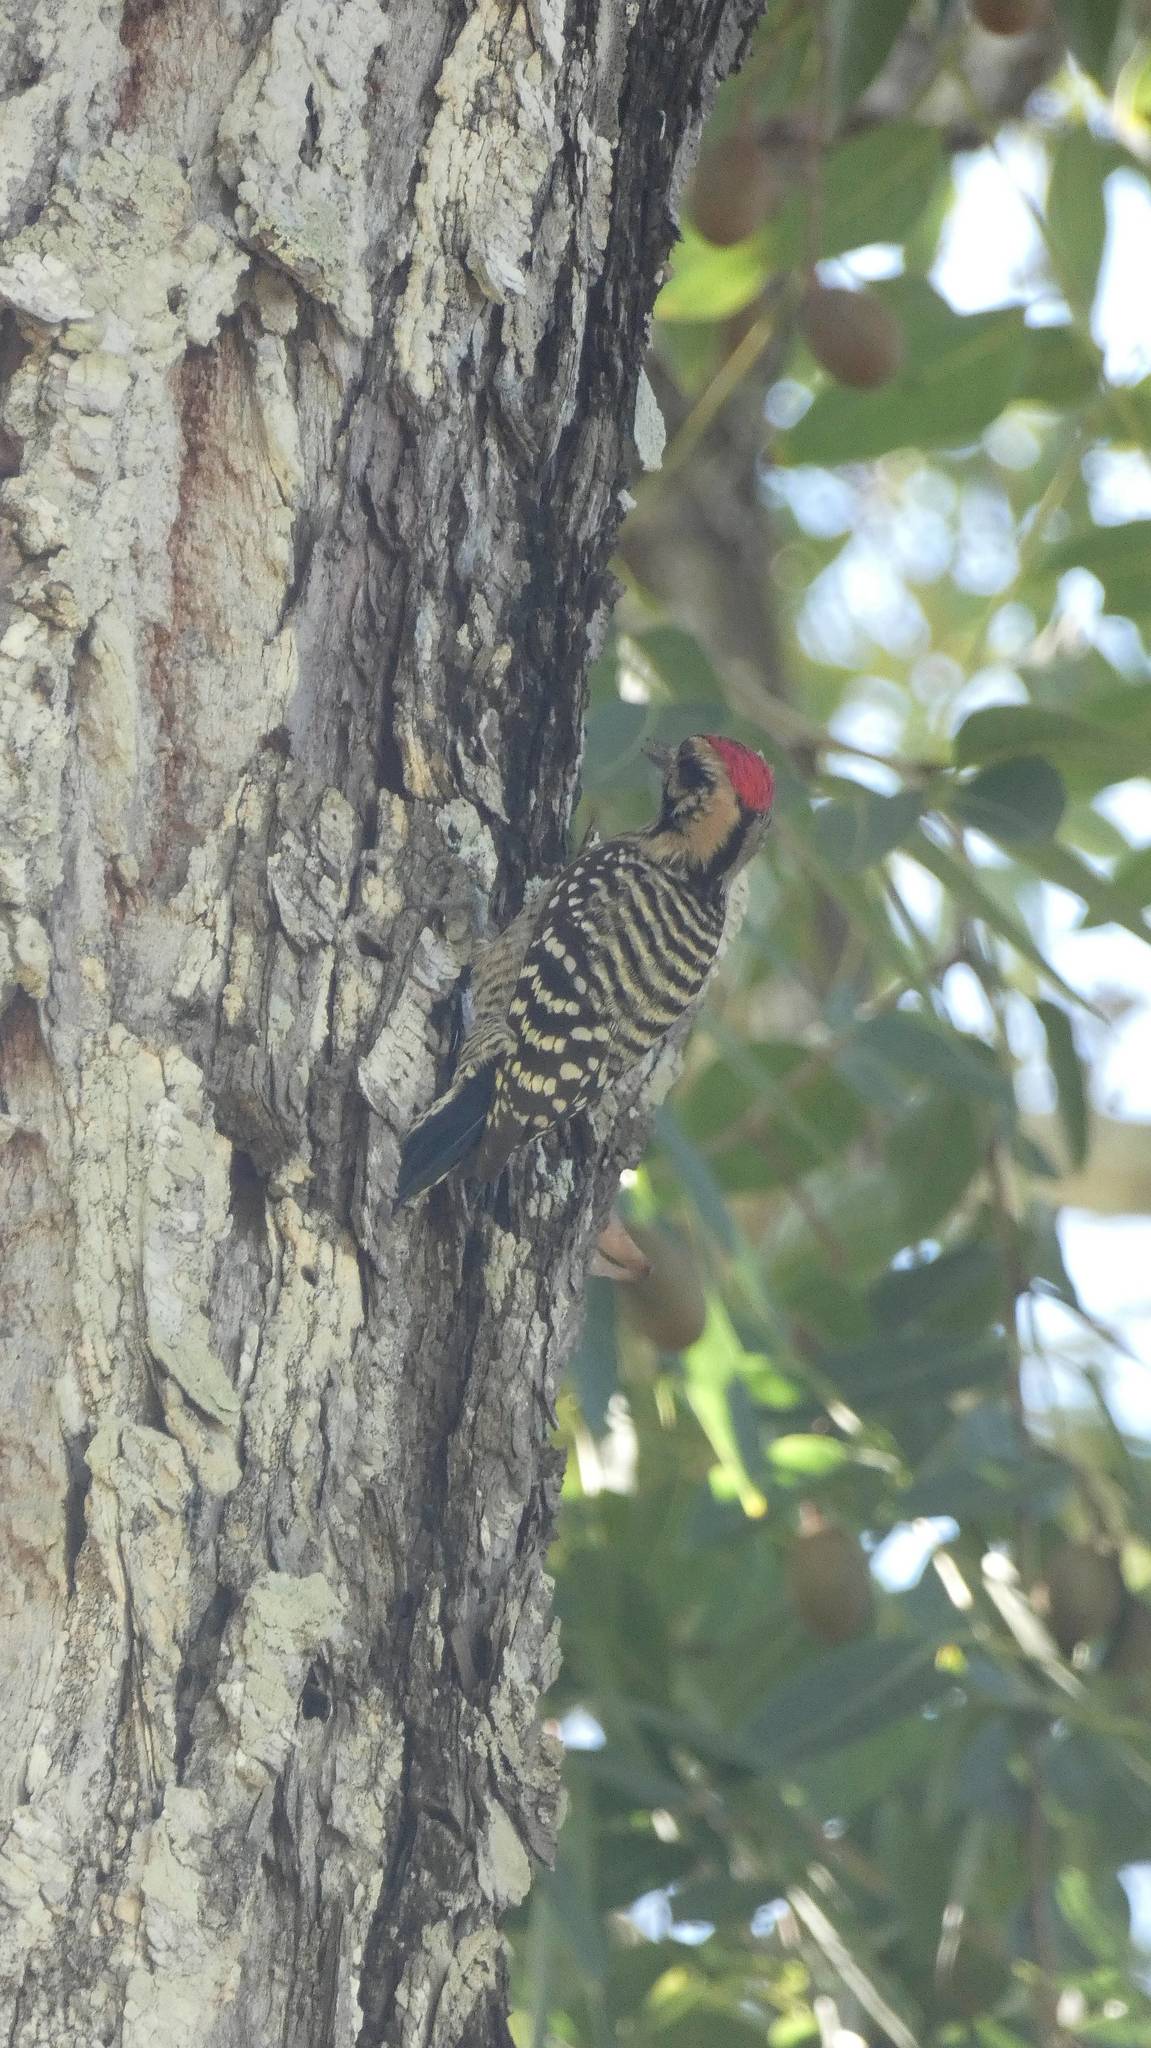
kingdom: Animalia
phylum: Chordata
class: Aves
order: Piciformes
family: Picidae
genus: Dryobates
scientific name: Dryobates scalaris
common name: Ladder-backed woodpecker
